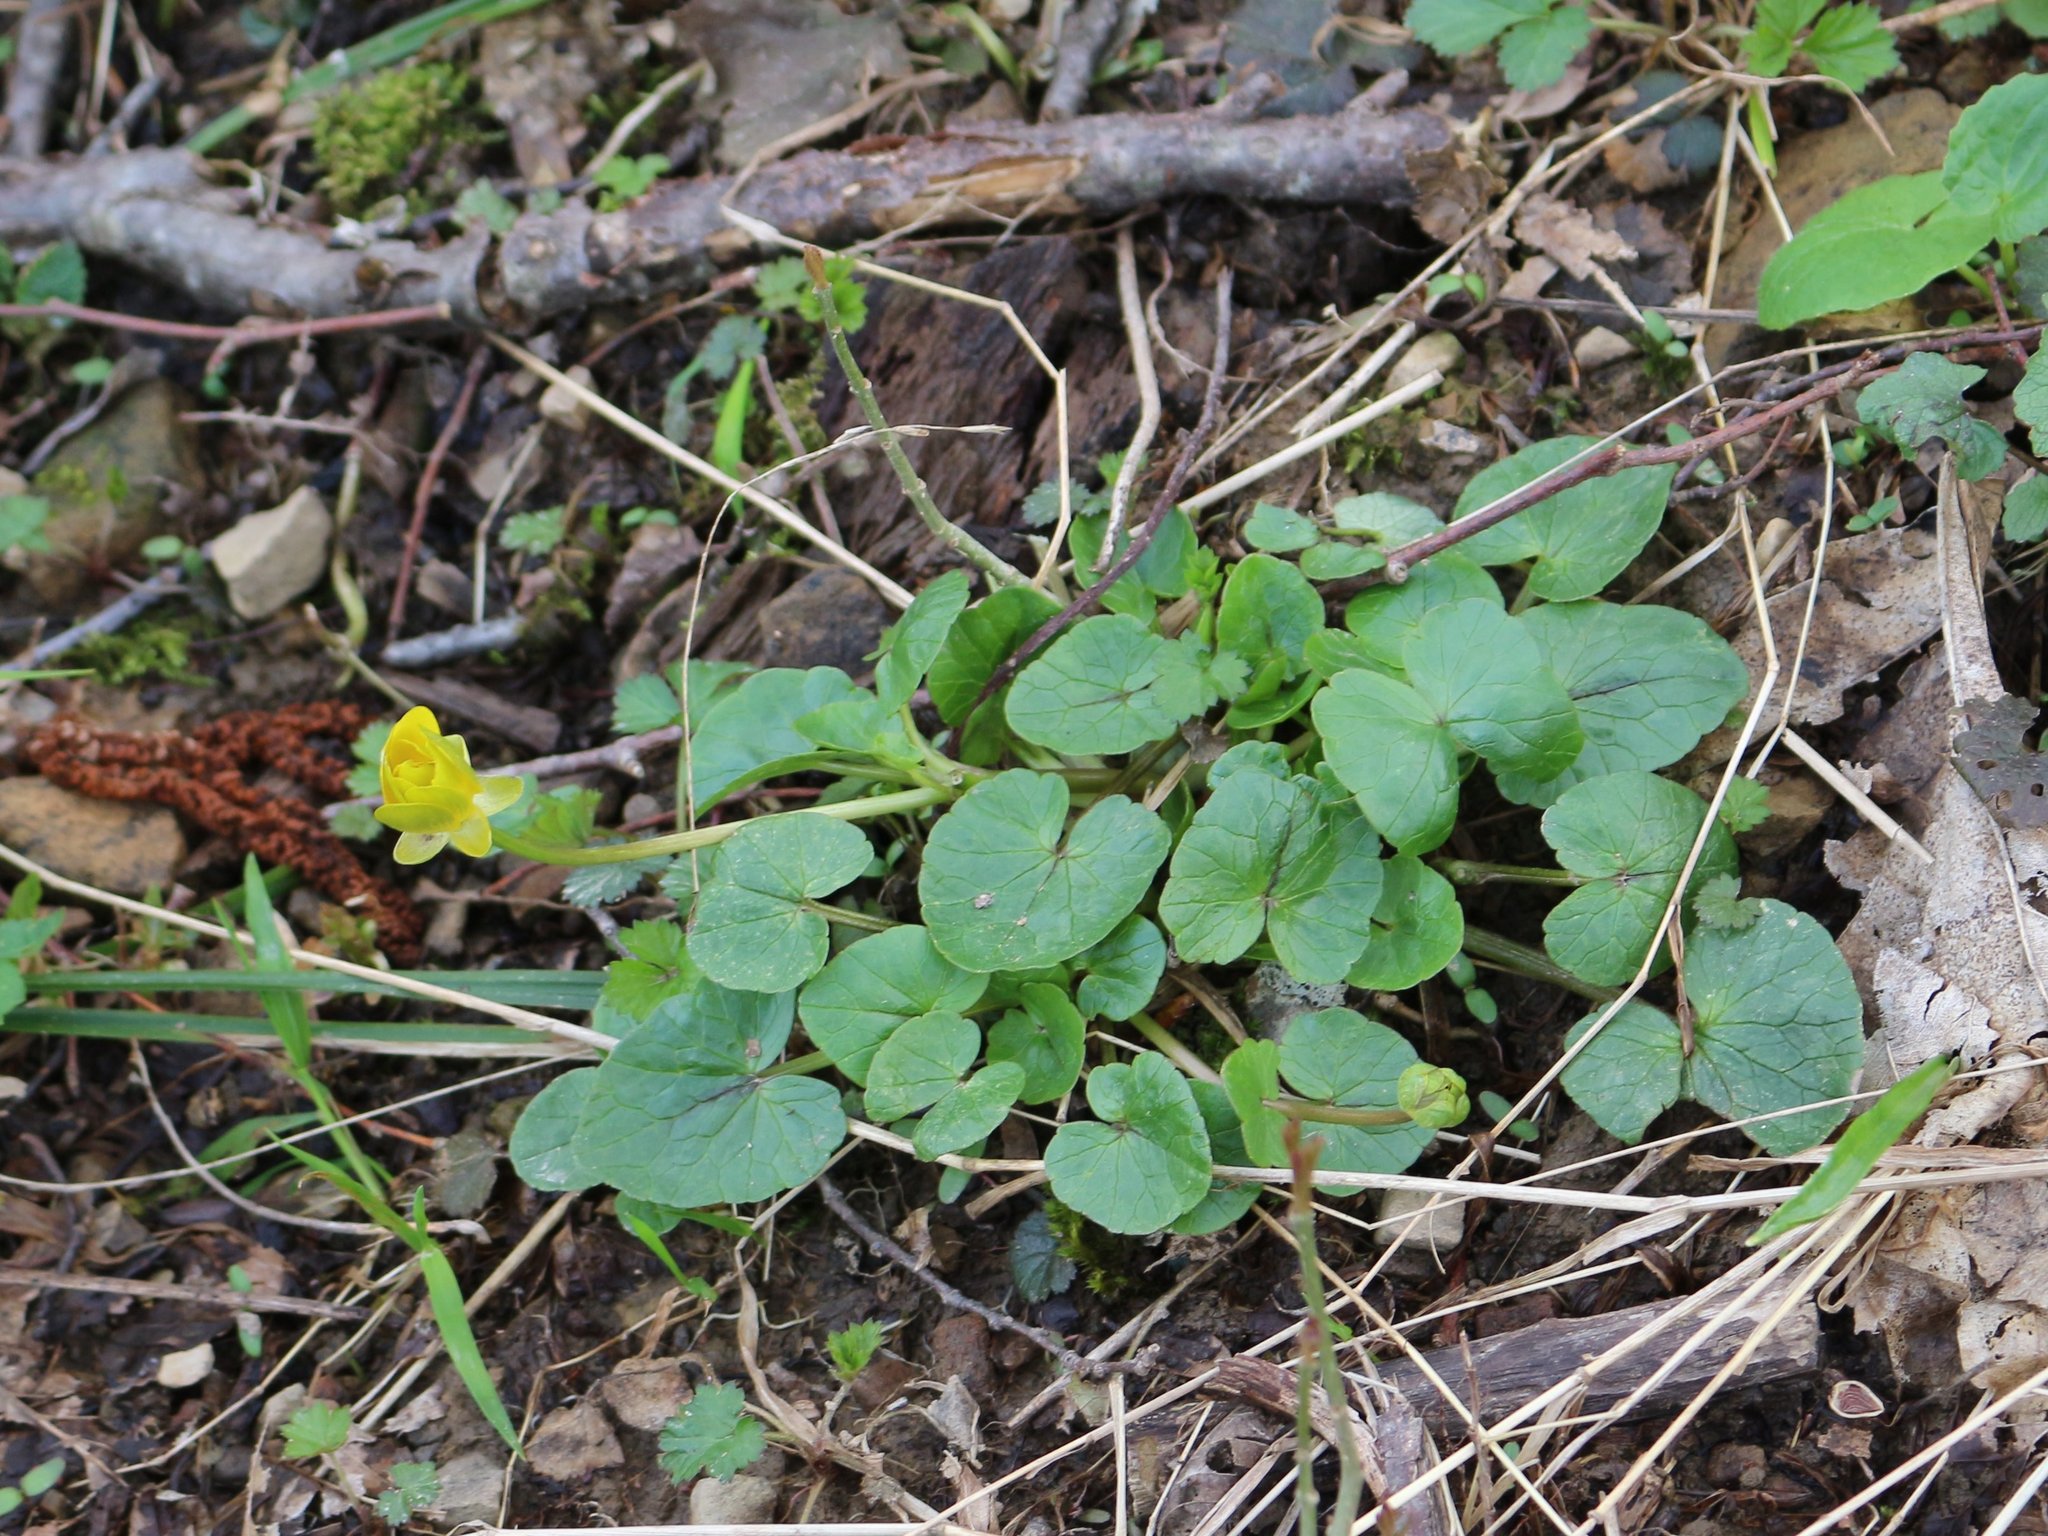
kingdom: Plantae
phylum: Tracheophyta
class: Magnoliopsida
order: Ranunculales
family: Ranunculaceae
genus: Ficaria
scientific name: Ficaria verna
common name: Lesser celandine
